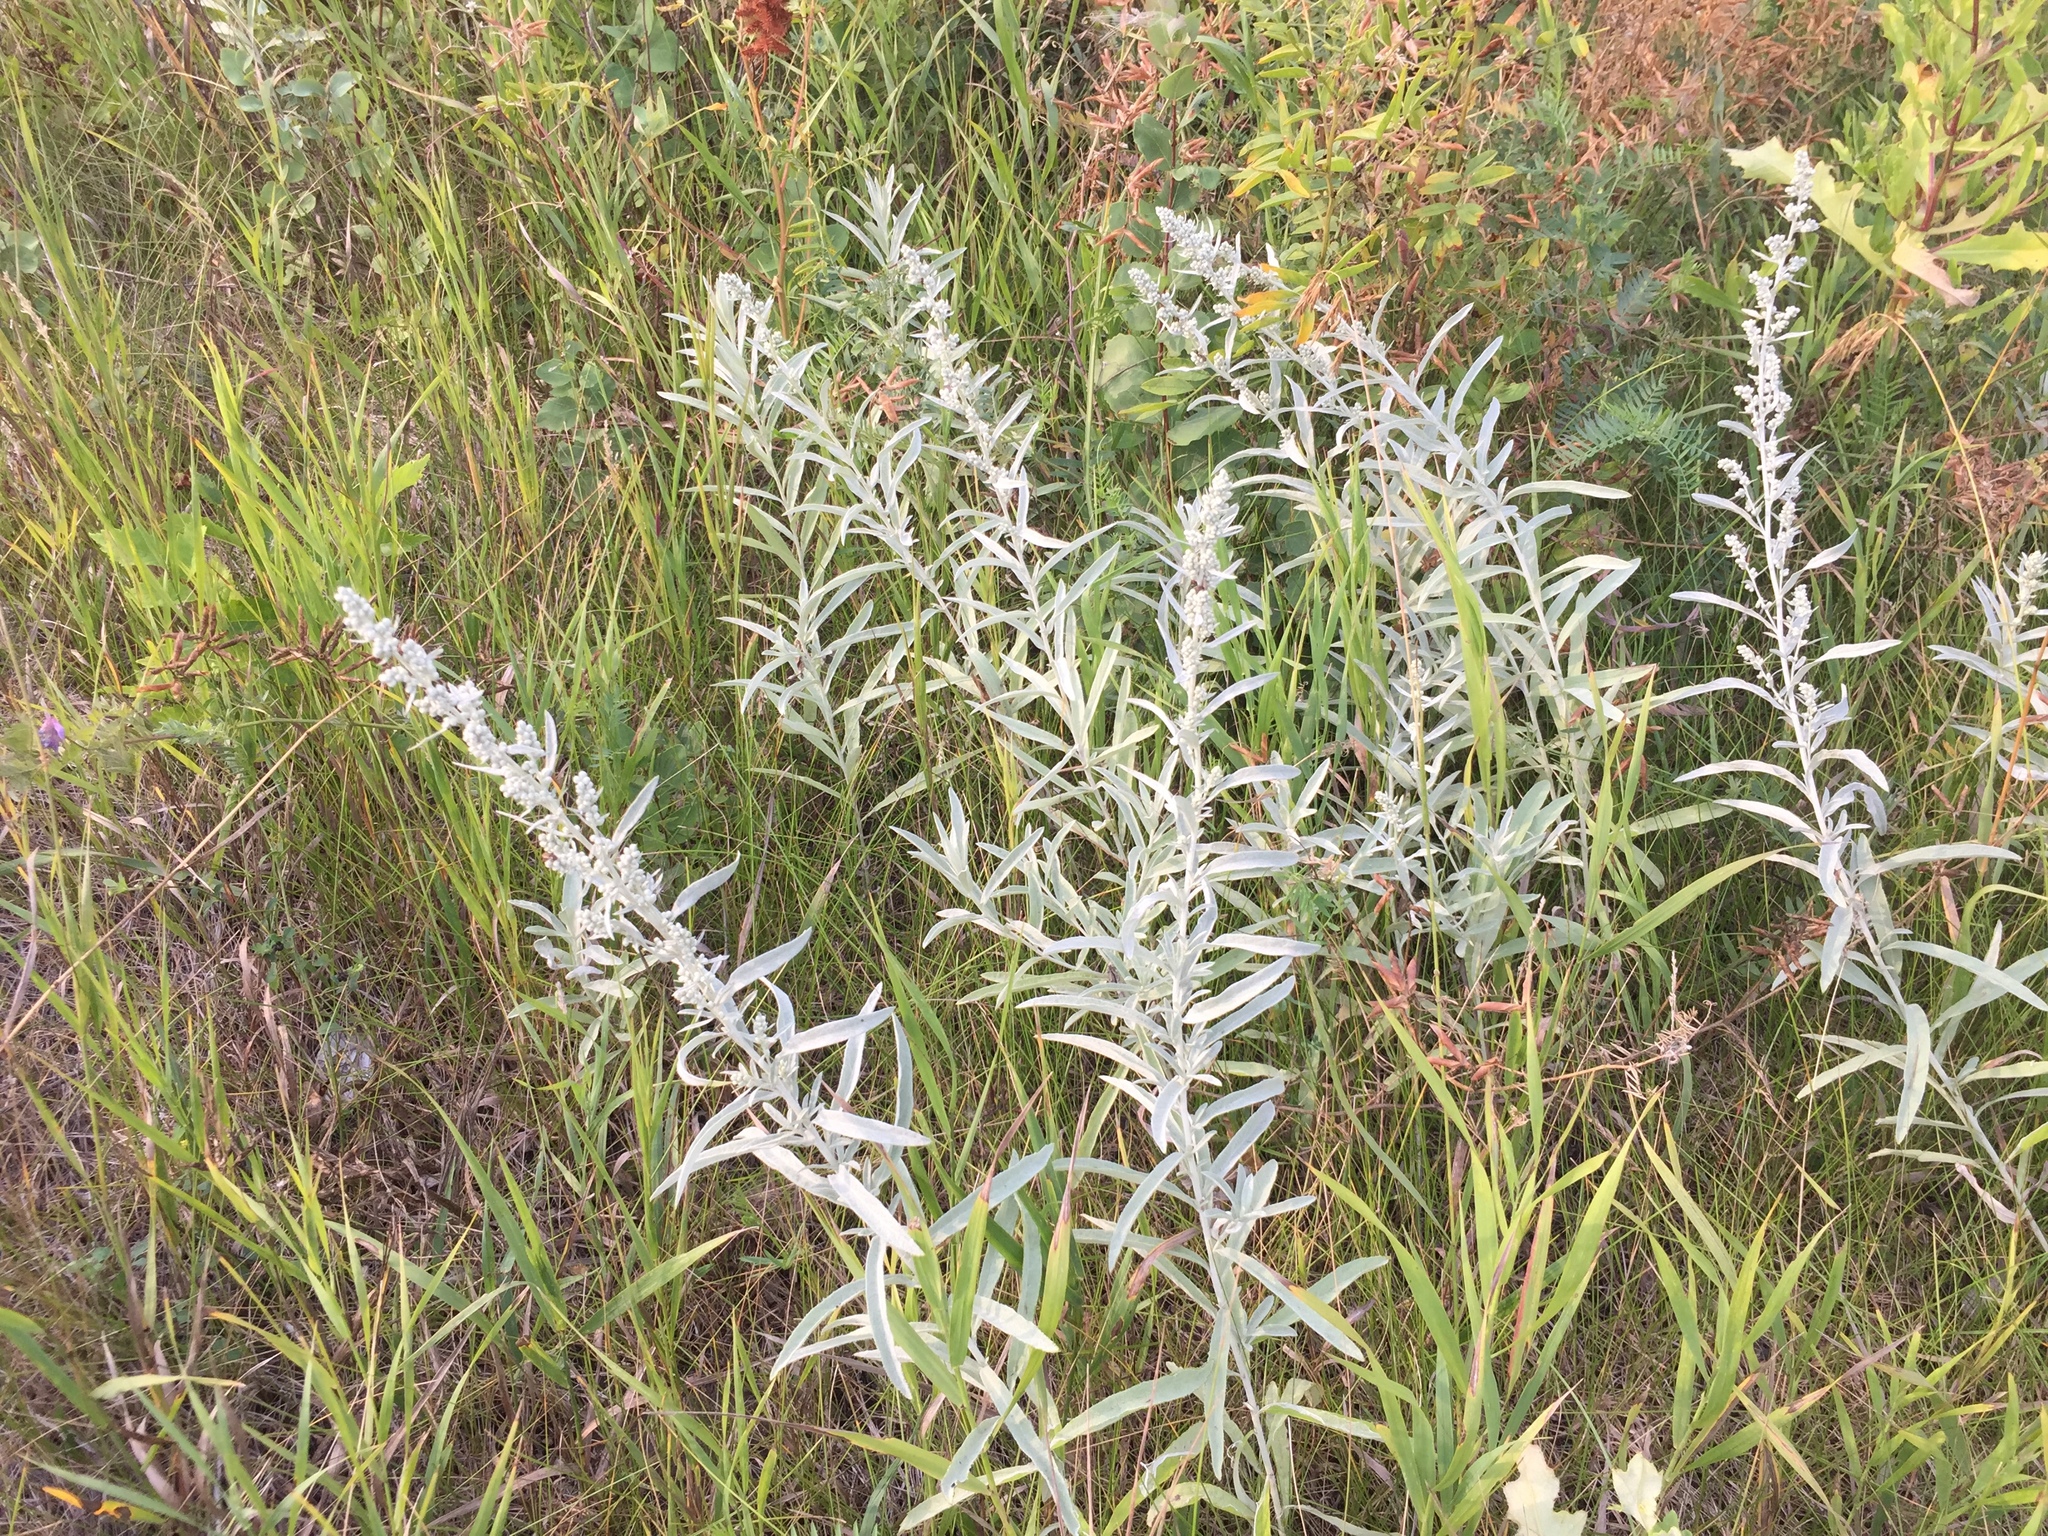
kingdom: Plantae
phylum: Tracheophyta
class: Magnoliopsida
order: Asterales
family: Asteraceae
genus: Artemisia
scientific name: Artemisia ludoviciana
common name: Western mugwort
